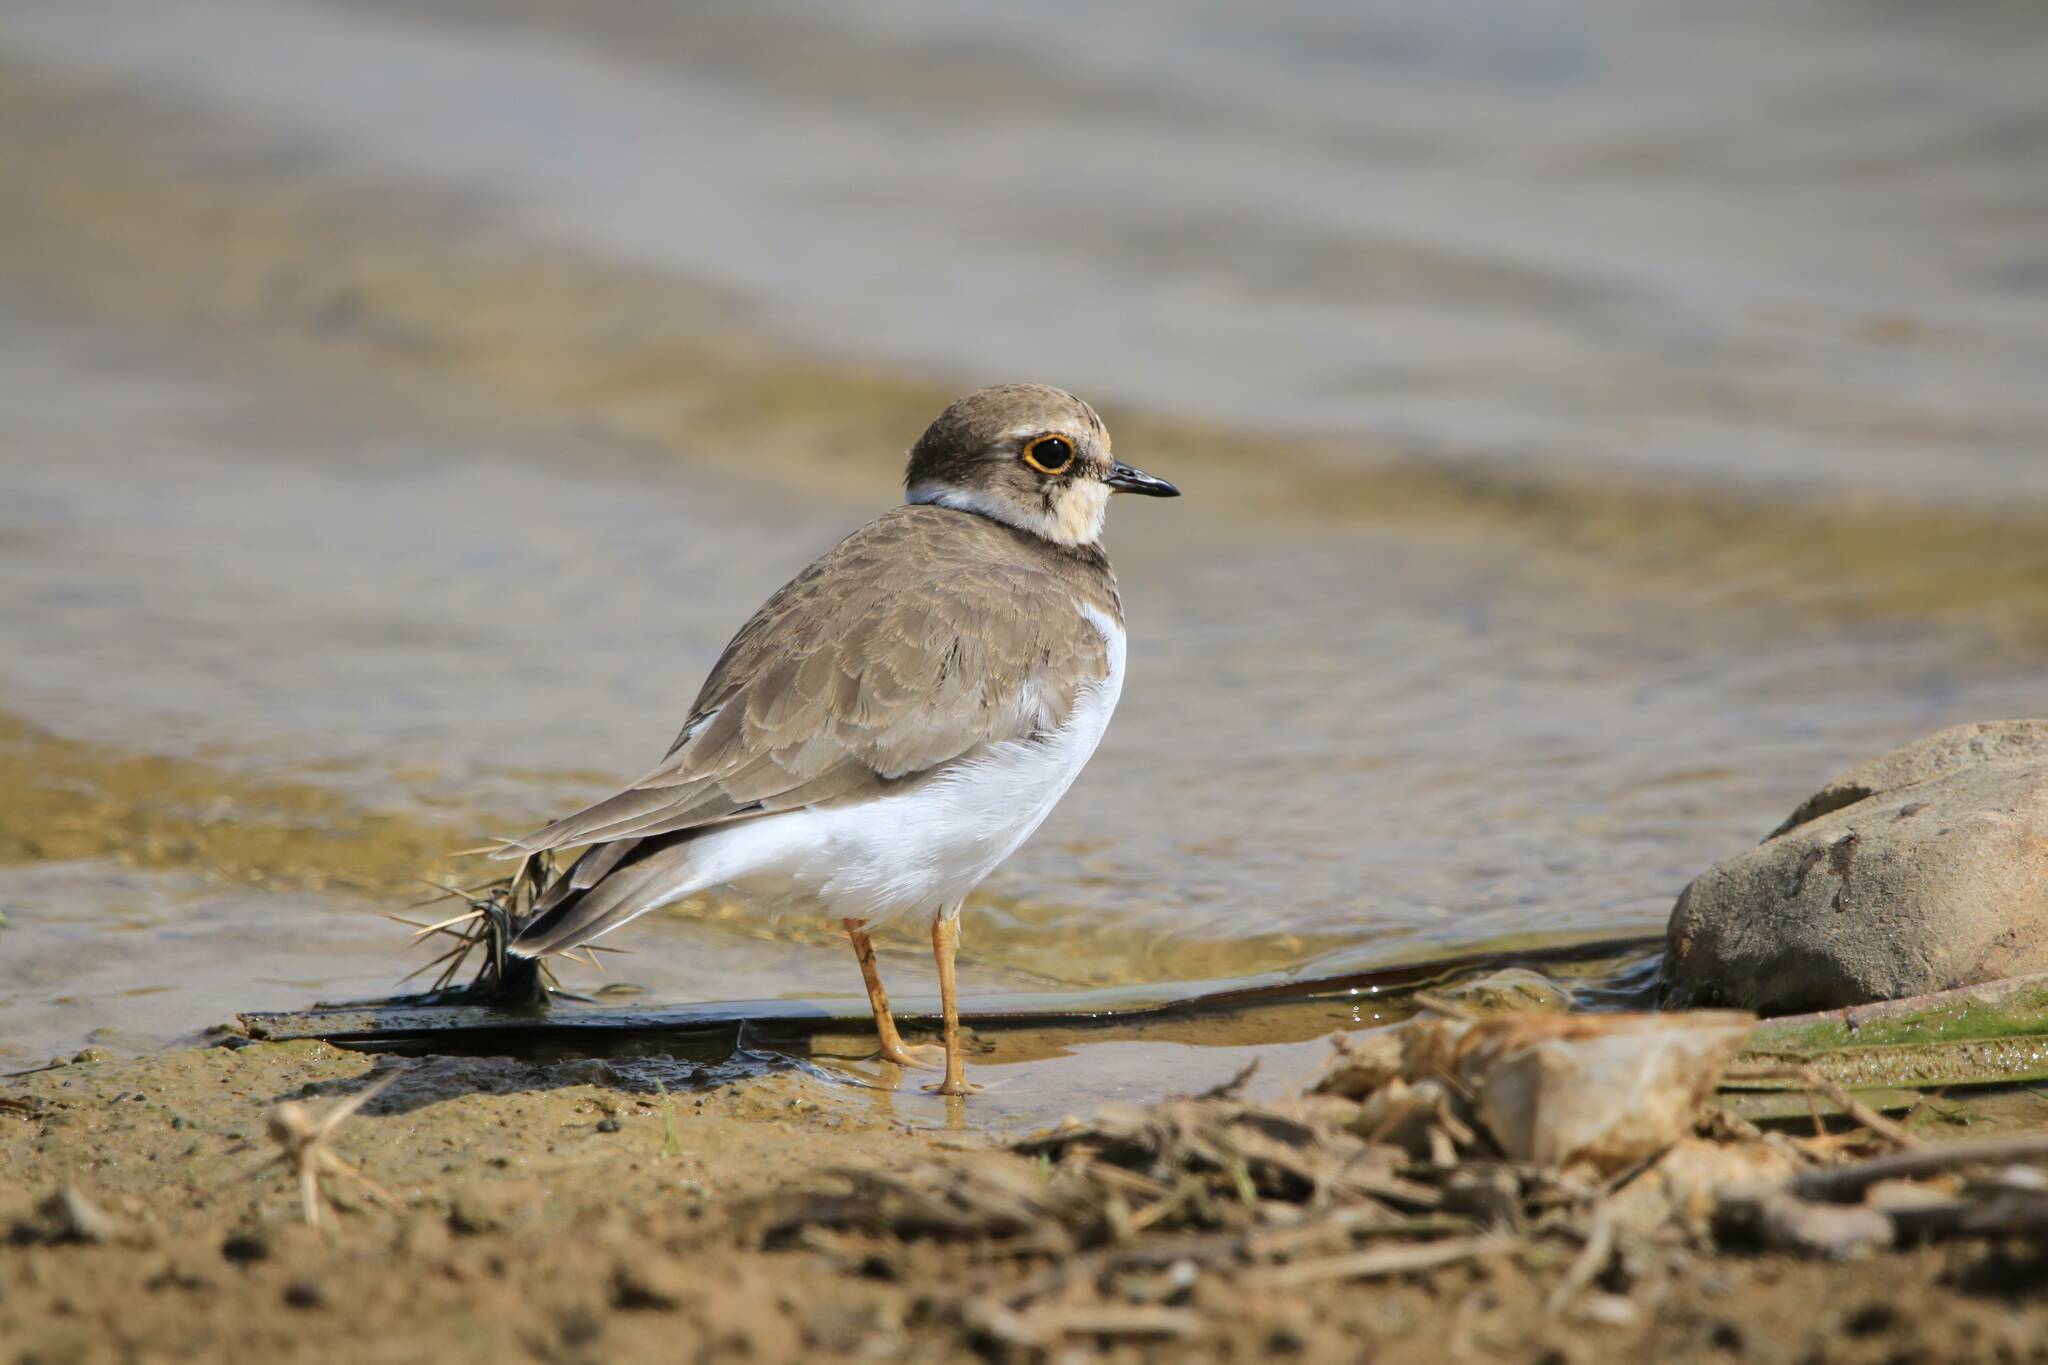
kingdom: Animalia
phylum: Chordata
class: Aves
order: Charadriiformes
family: Charadriidae
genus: Charadrius
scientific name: Charadrius dubius
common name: Little ringed plover
